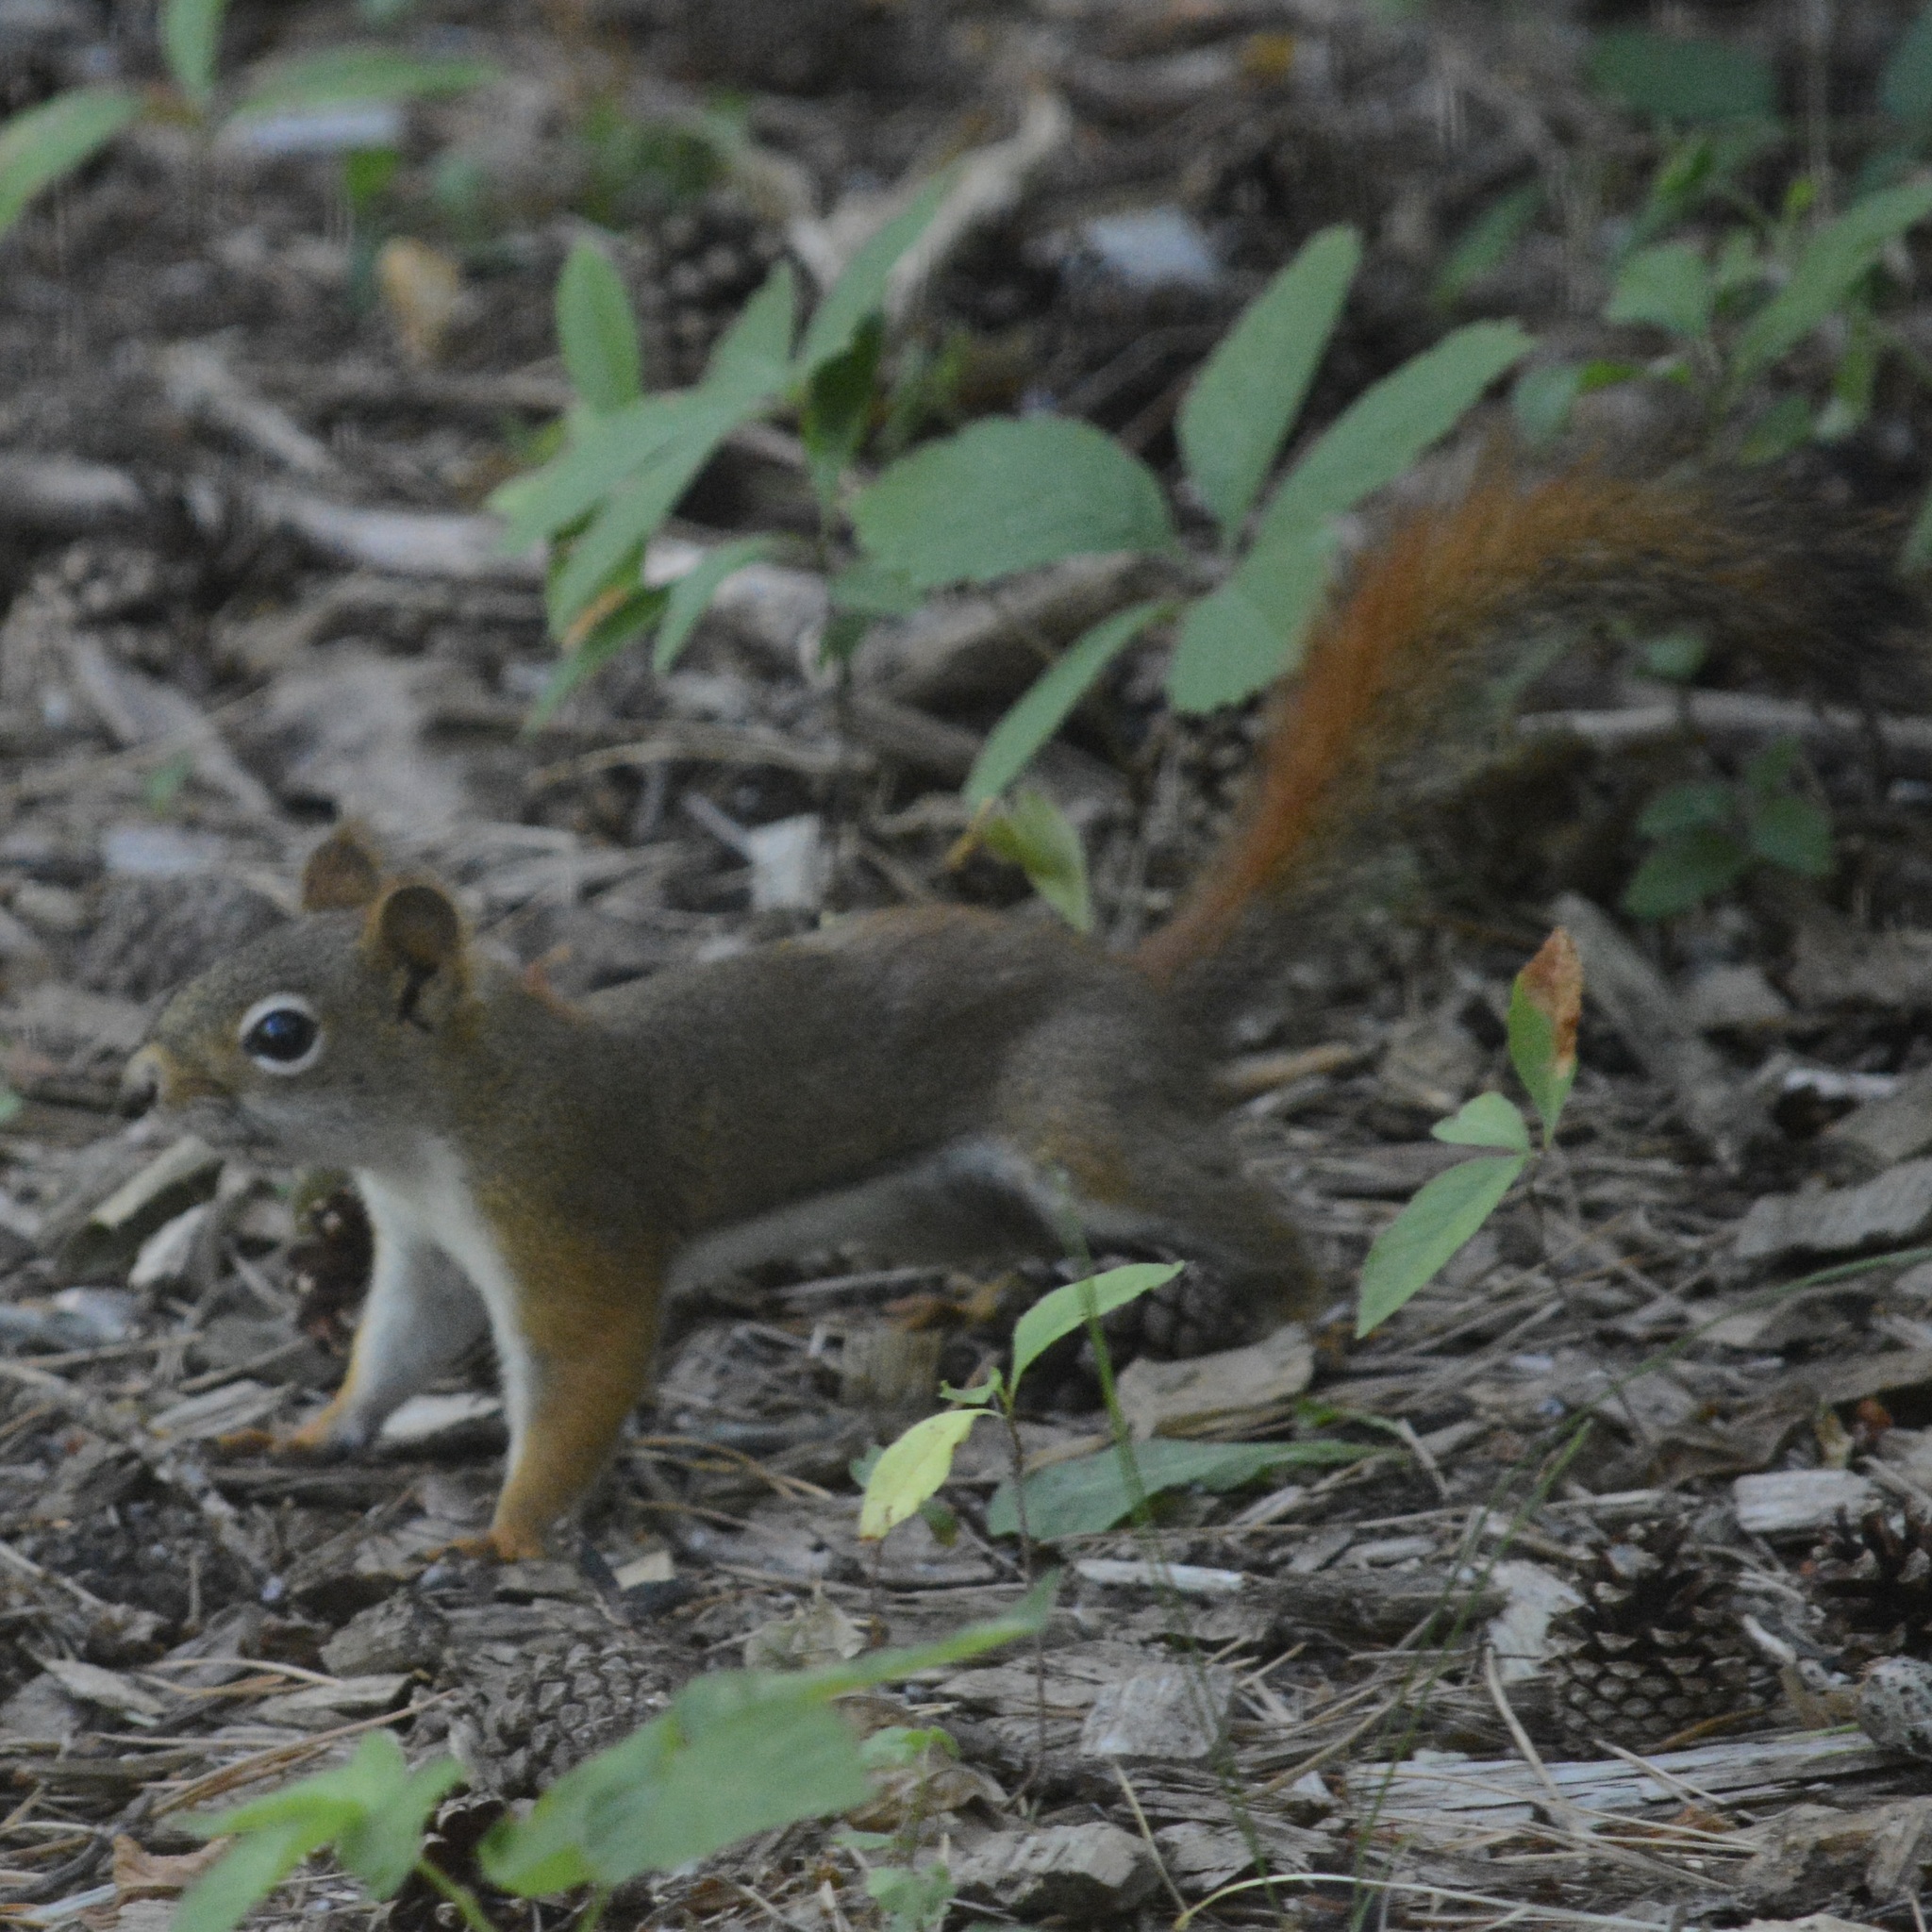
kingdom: Animalia
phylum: Chordata
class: Mammalia
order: Rodentia
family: Sciuridae
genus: Tamiasciurus
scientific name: Tamiasciurus hudsonicus
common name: Red squirrel
